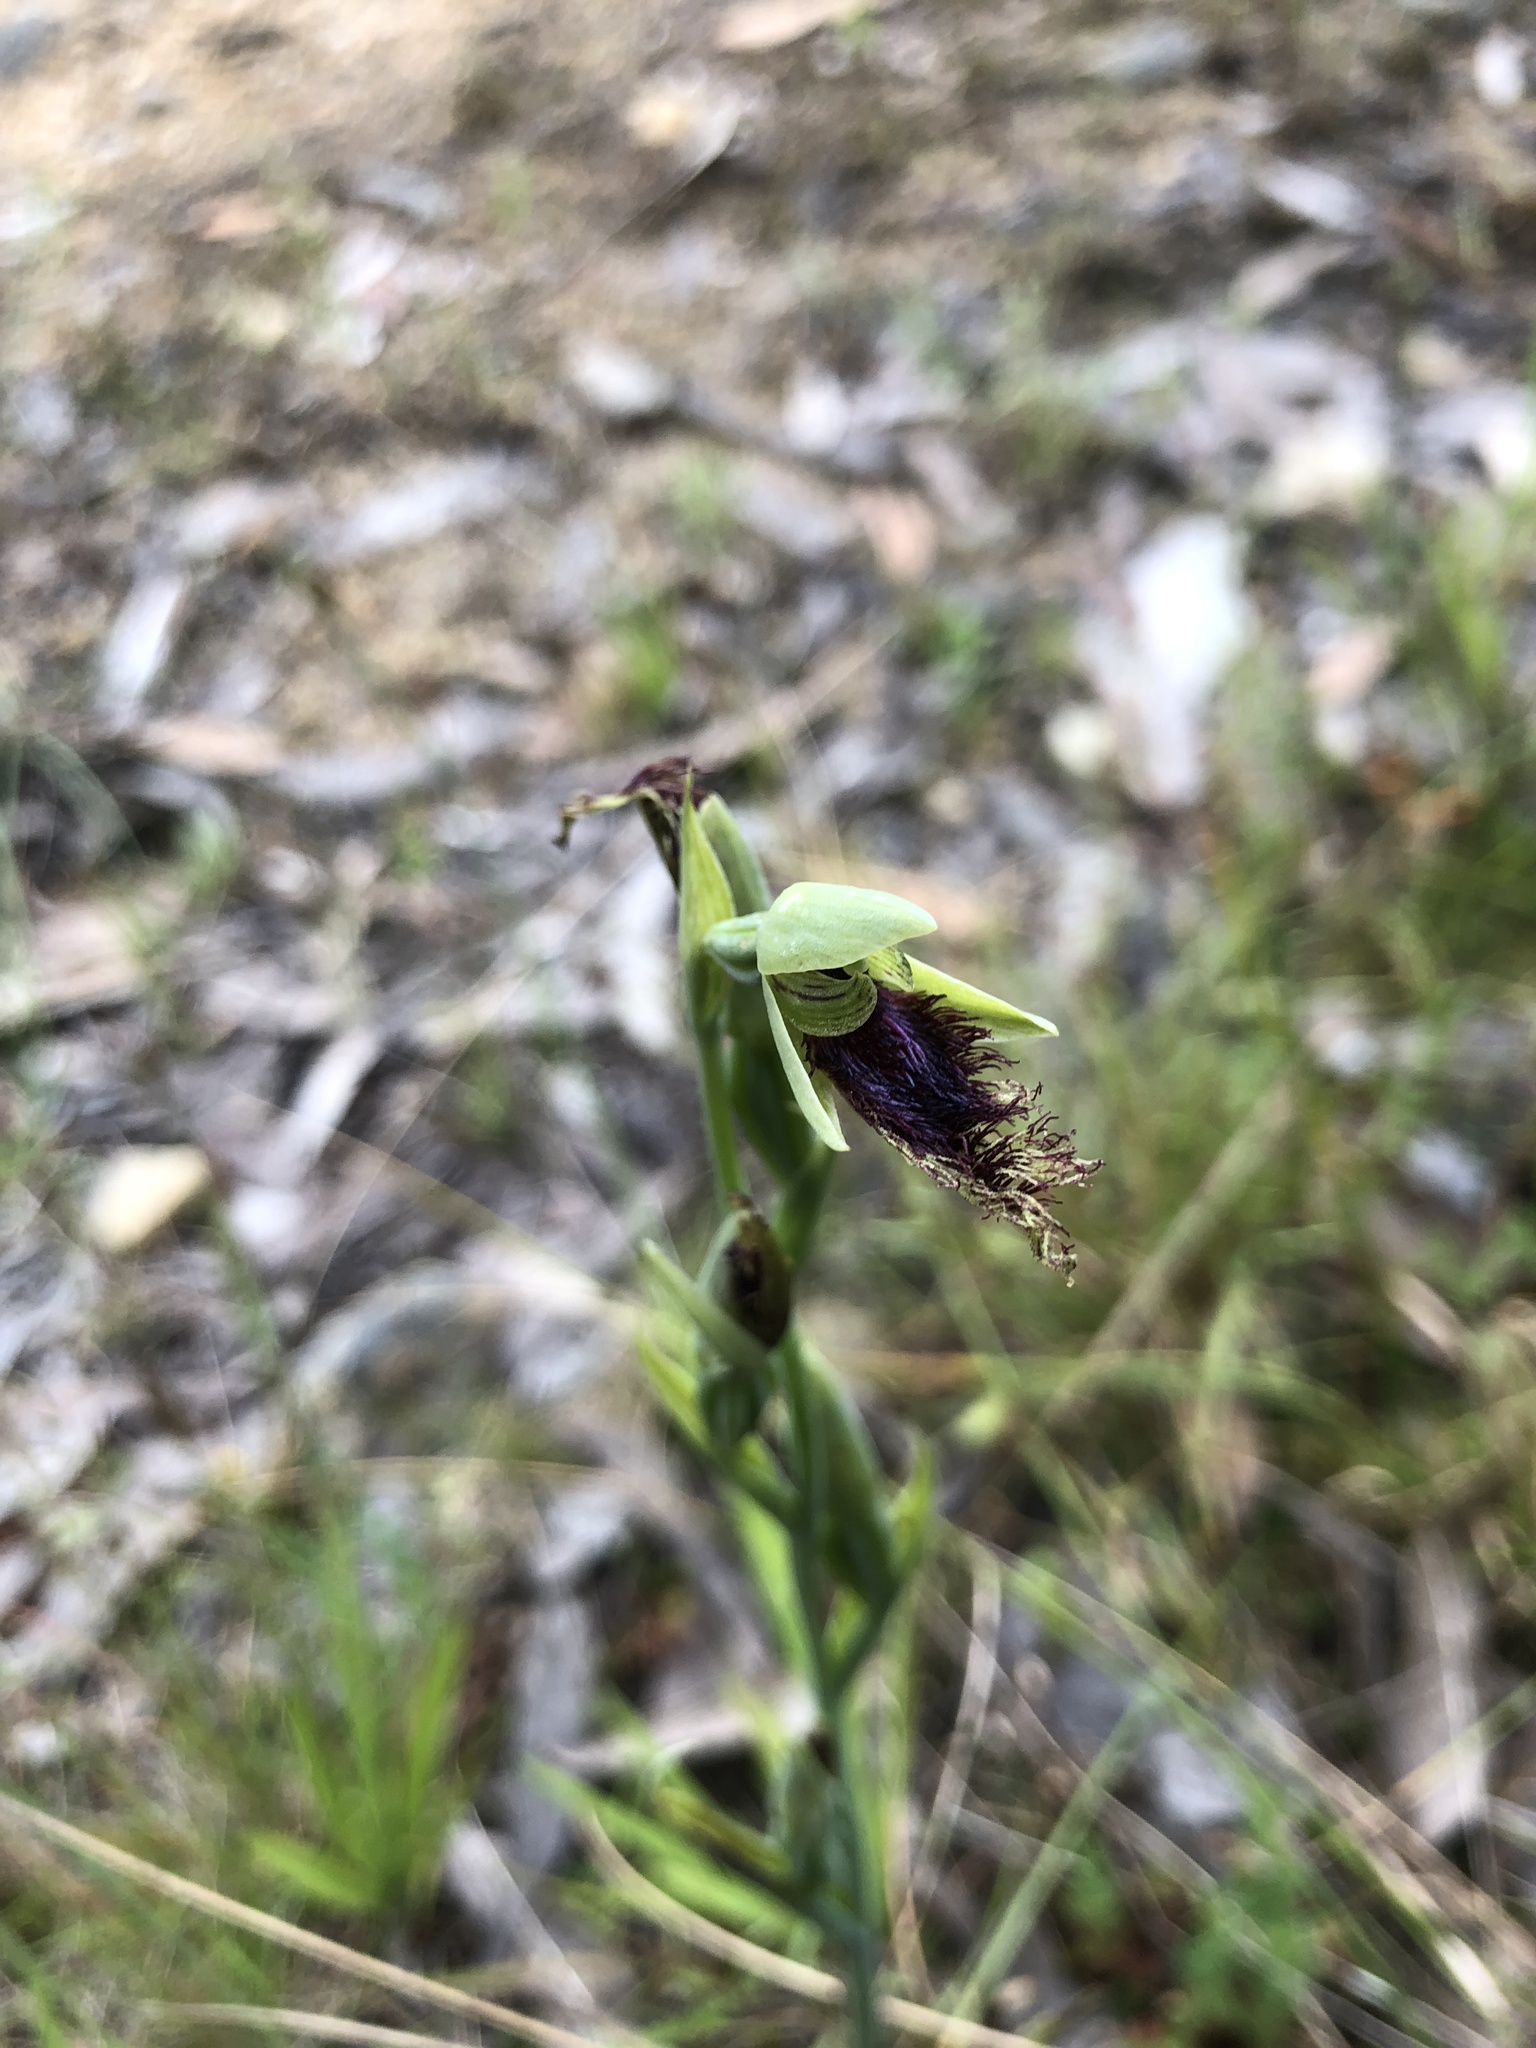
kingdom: Plantae
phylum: Tracheophyta
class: Liliopsida
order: Asparagales
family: Orchidaceae
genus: Calochilus
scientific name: Calochilus robertsonii
